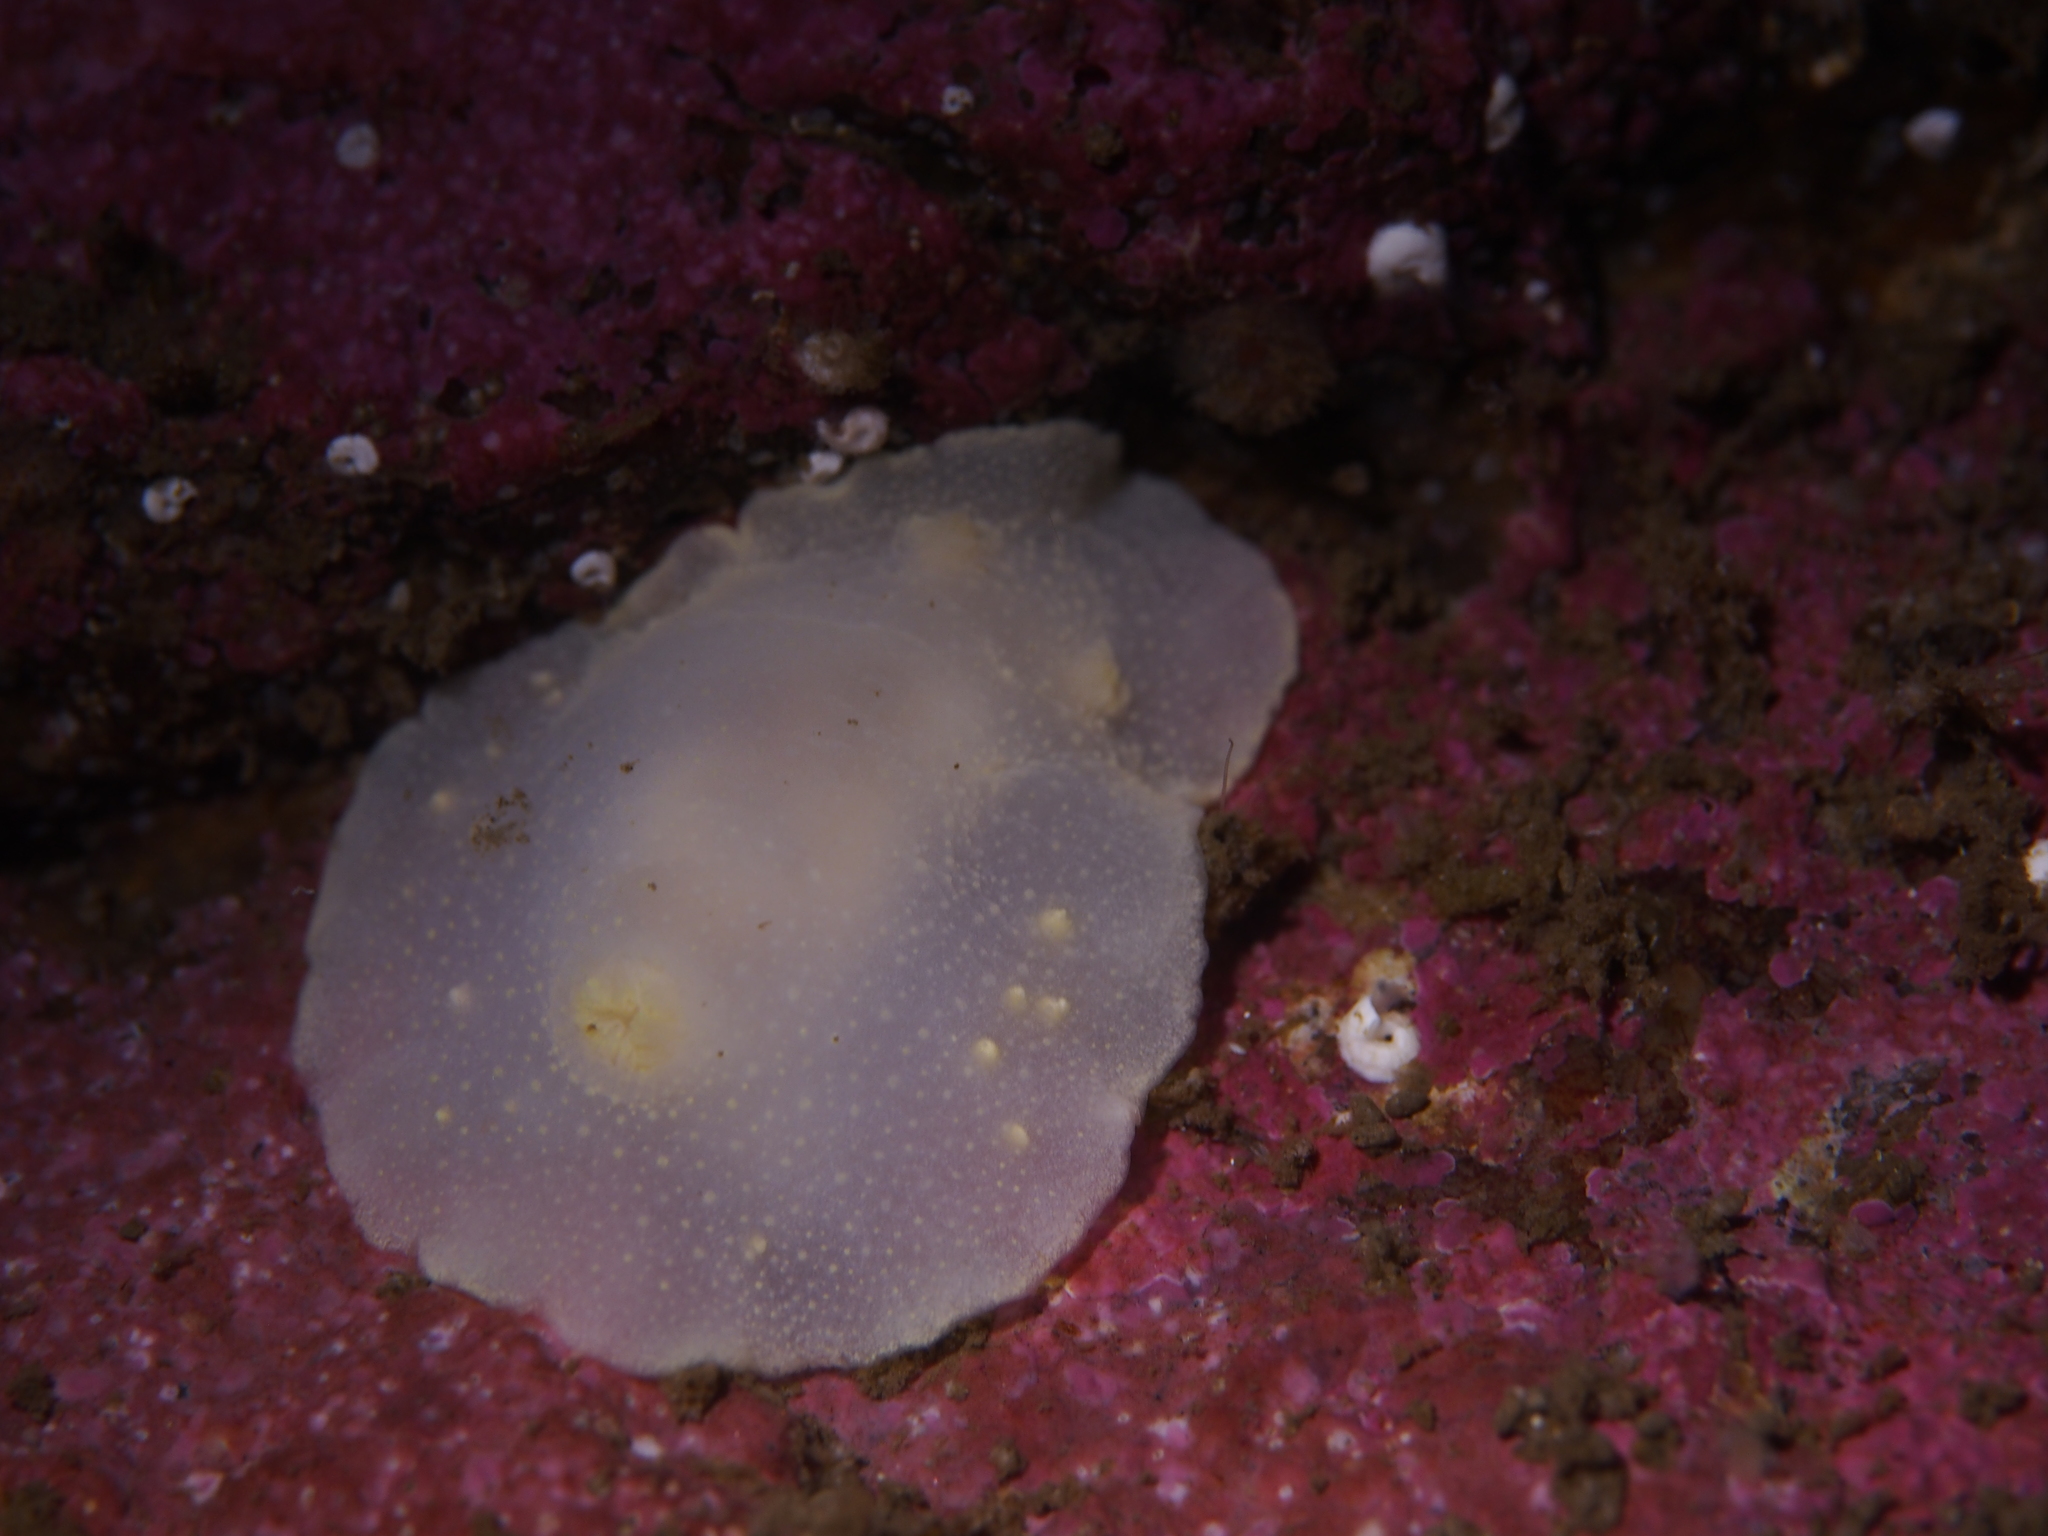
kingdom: Animalia
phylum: Mollusca
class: Gastropoda
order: Nudibranchia
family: Cadlinidae
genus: Cadlina
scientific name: Cadlina laevis
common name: White atlantic cadlina
